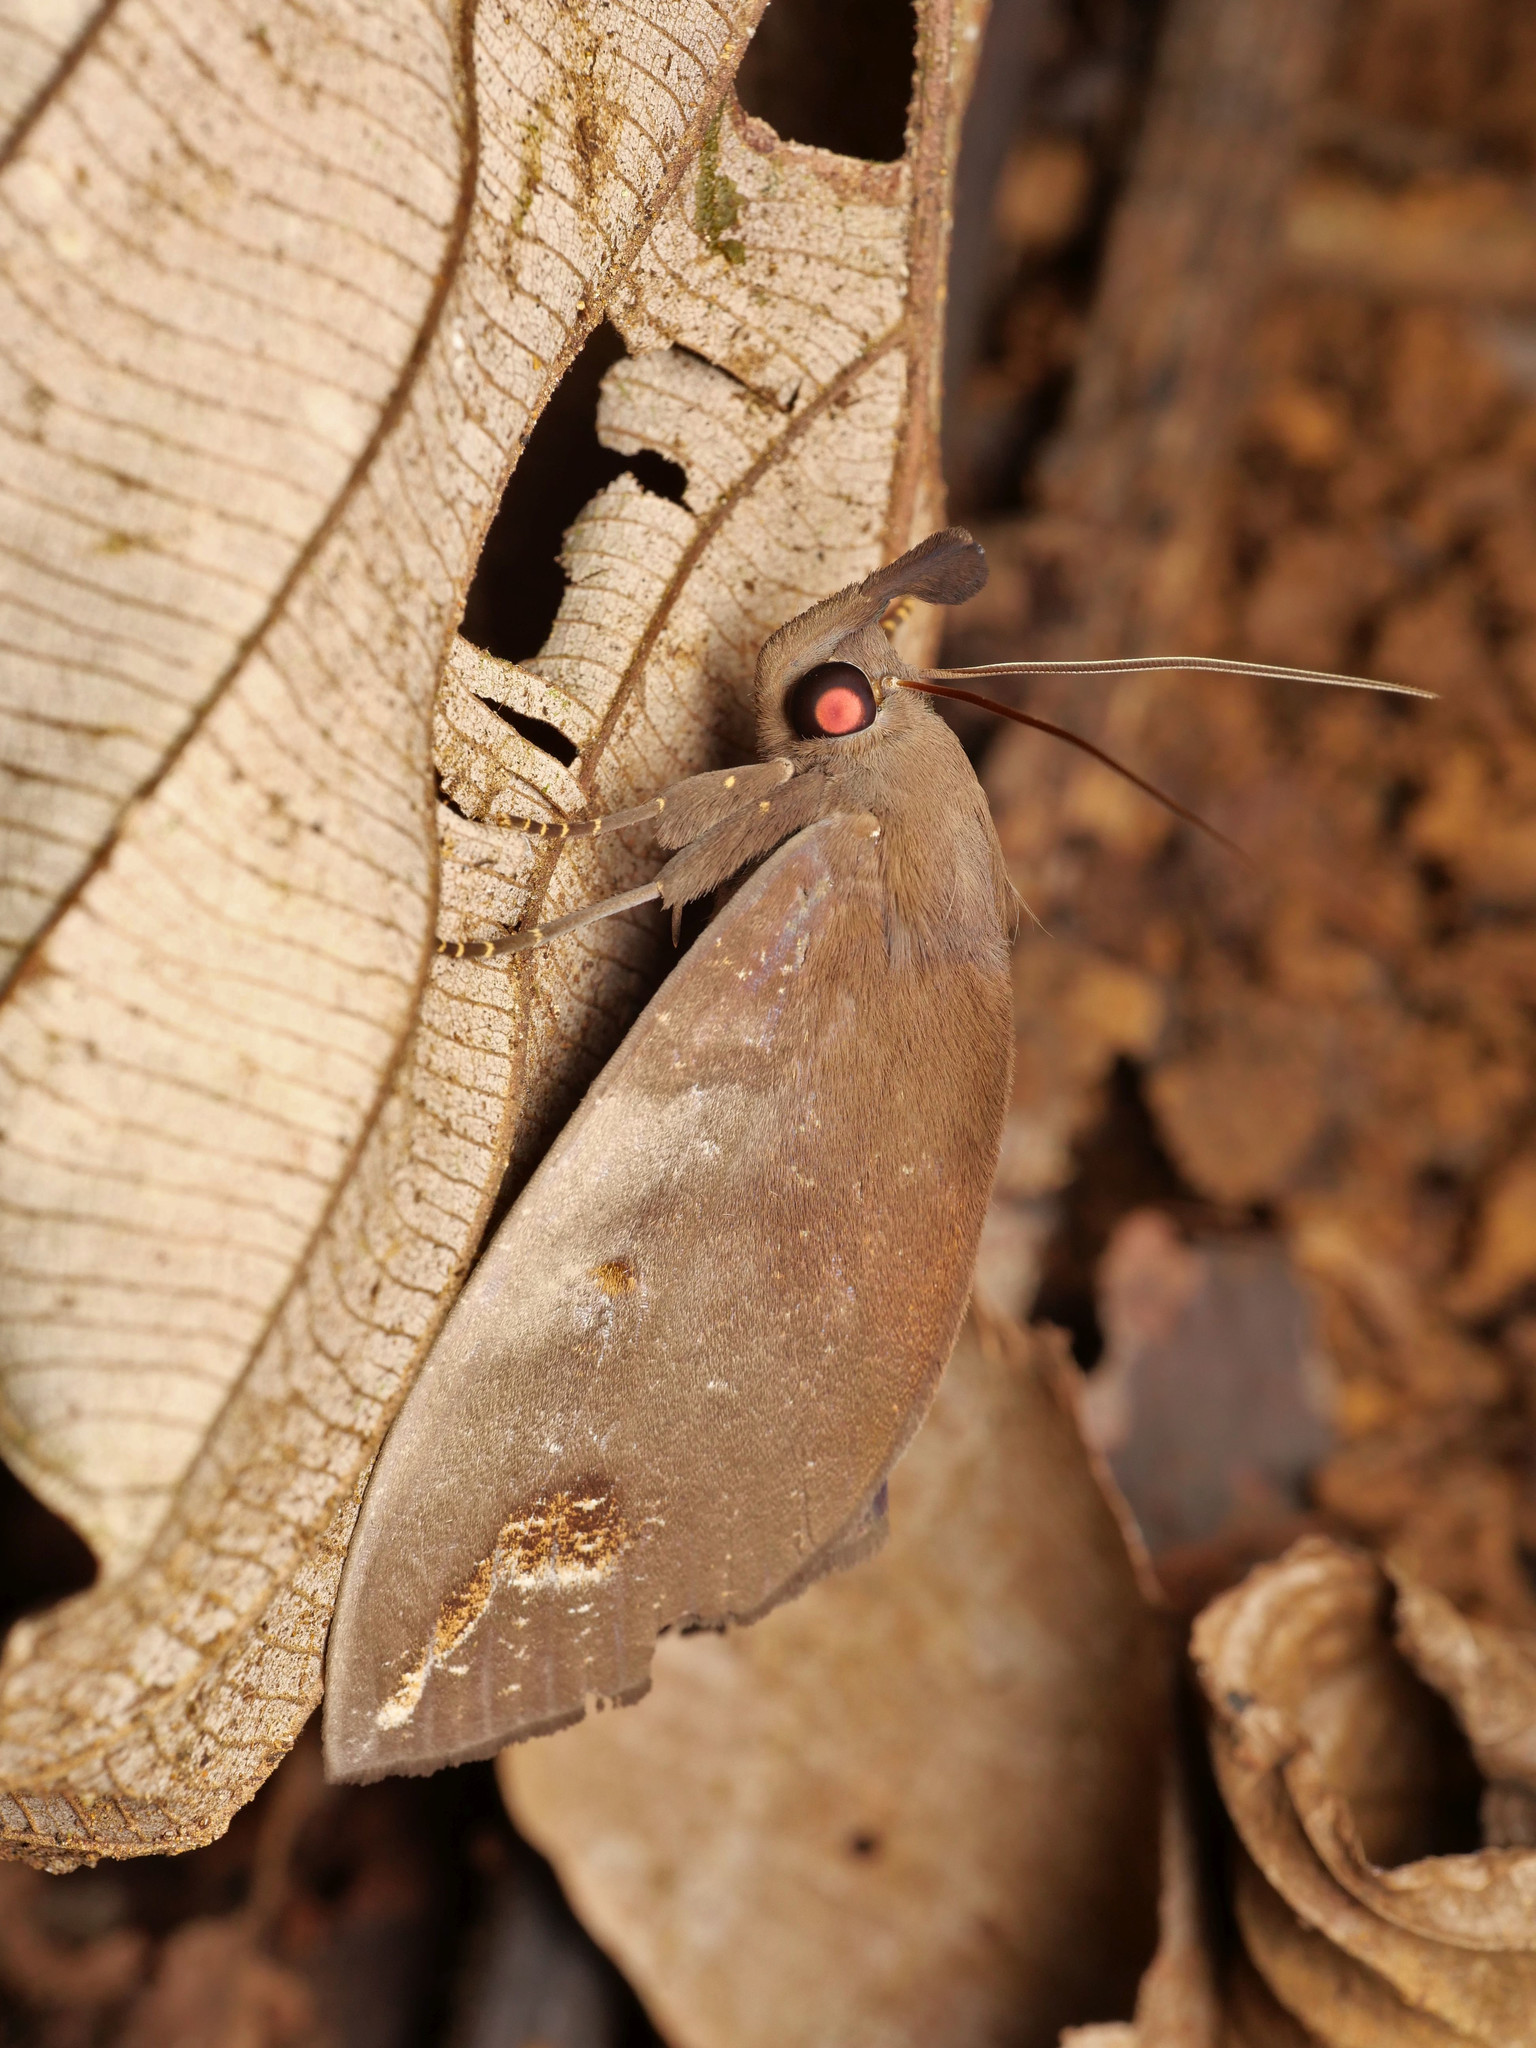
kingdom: Animalia
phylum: Arthropoda
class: Insecta
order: Lepidoptera
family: Erebidae
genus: Tetrisia
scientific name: Tetrisia florigera
